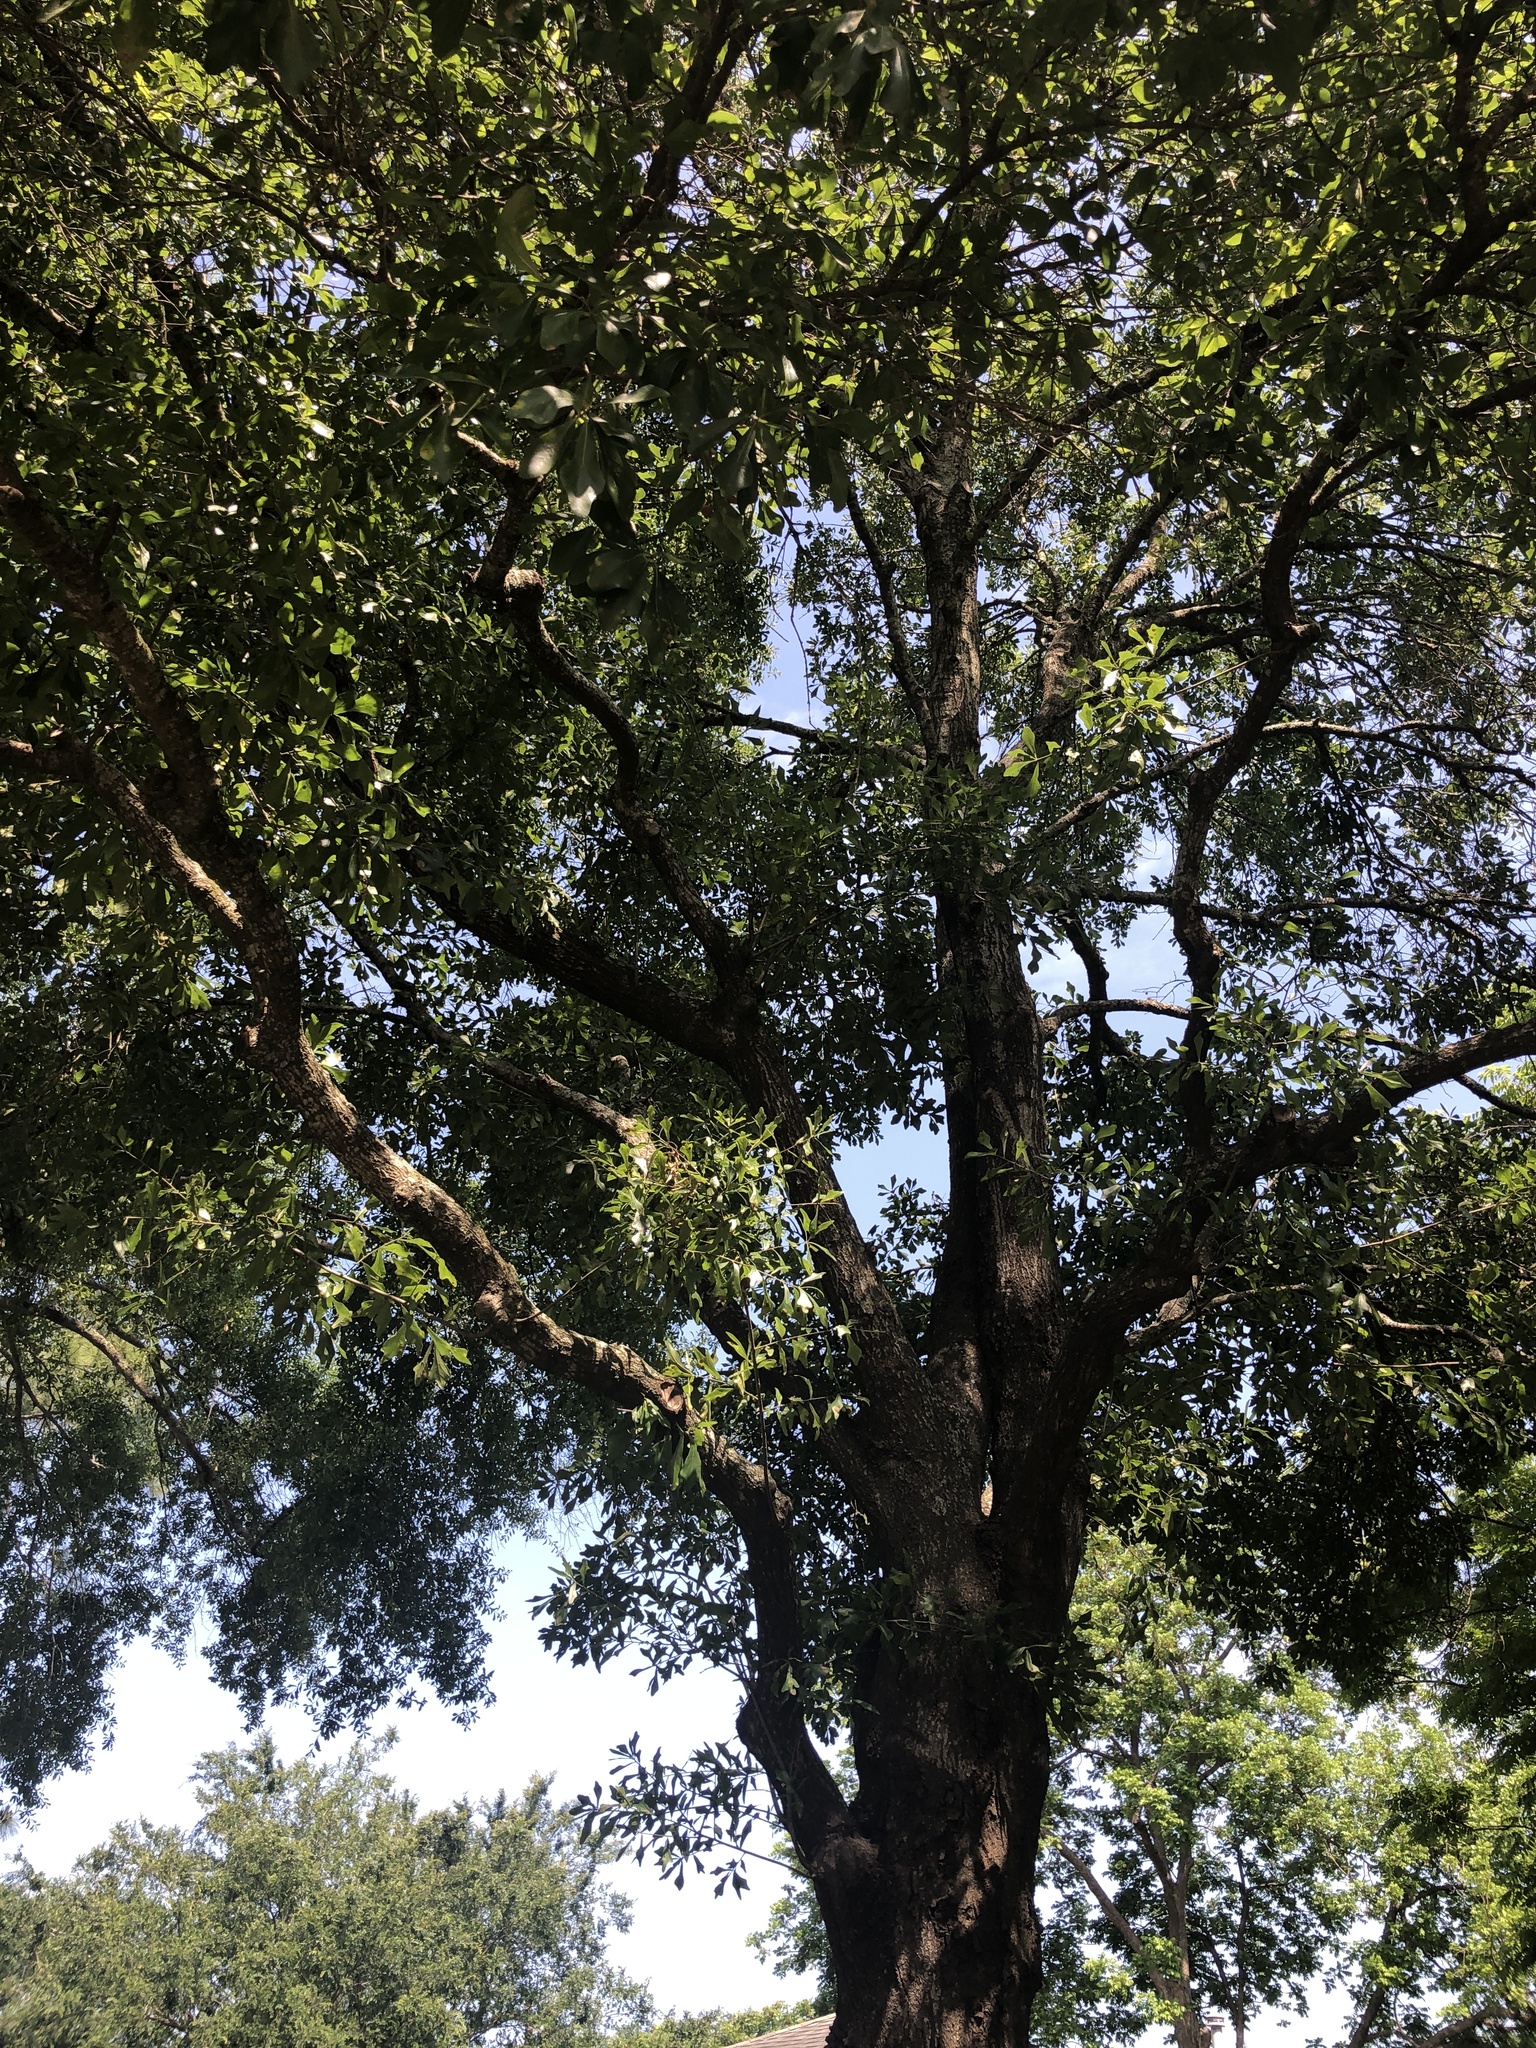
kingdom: Plantae
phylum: Tracheophyta
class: Magnoliopsida
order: Fagales
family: Fagaceae
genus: Quercus
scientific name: Quercus nigra
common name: Water oak
